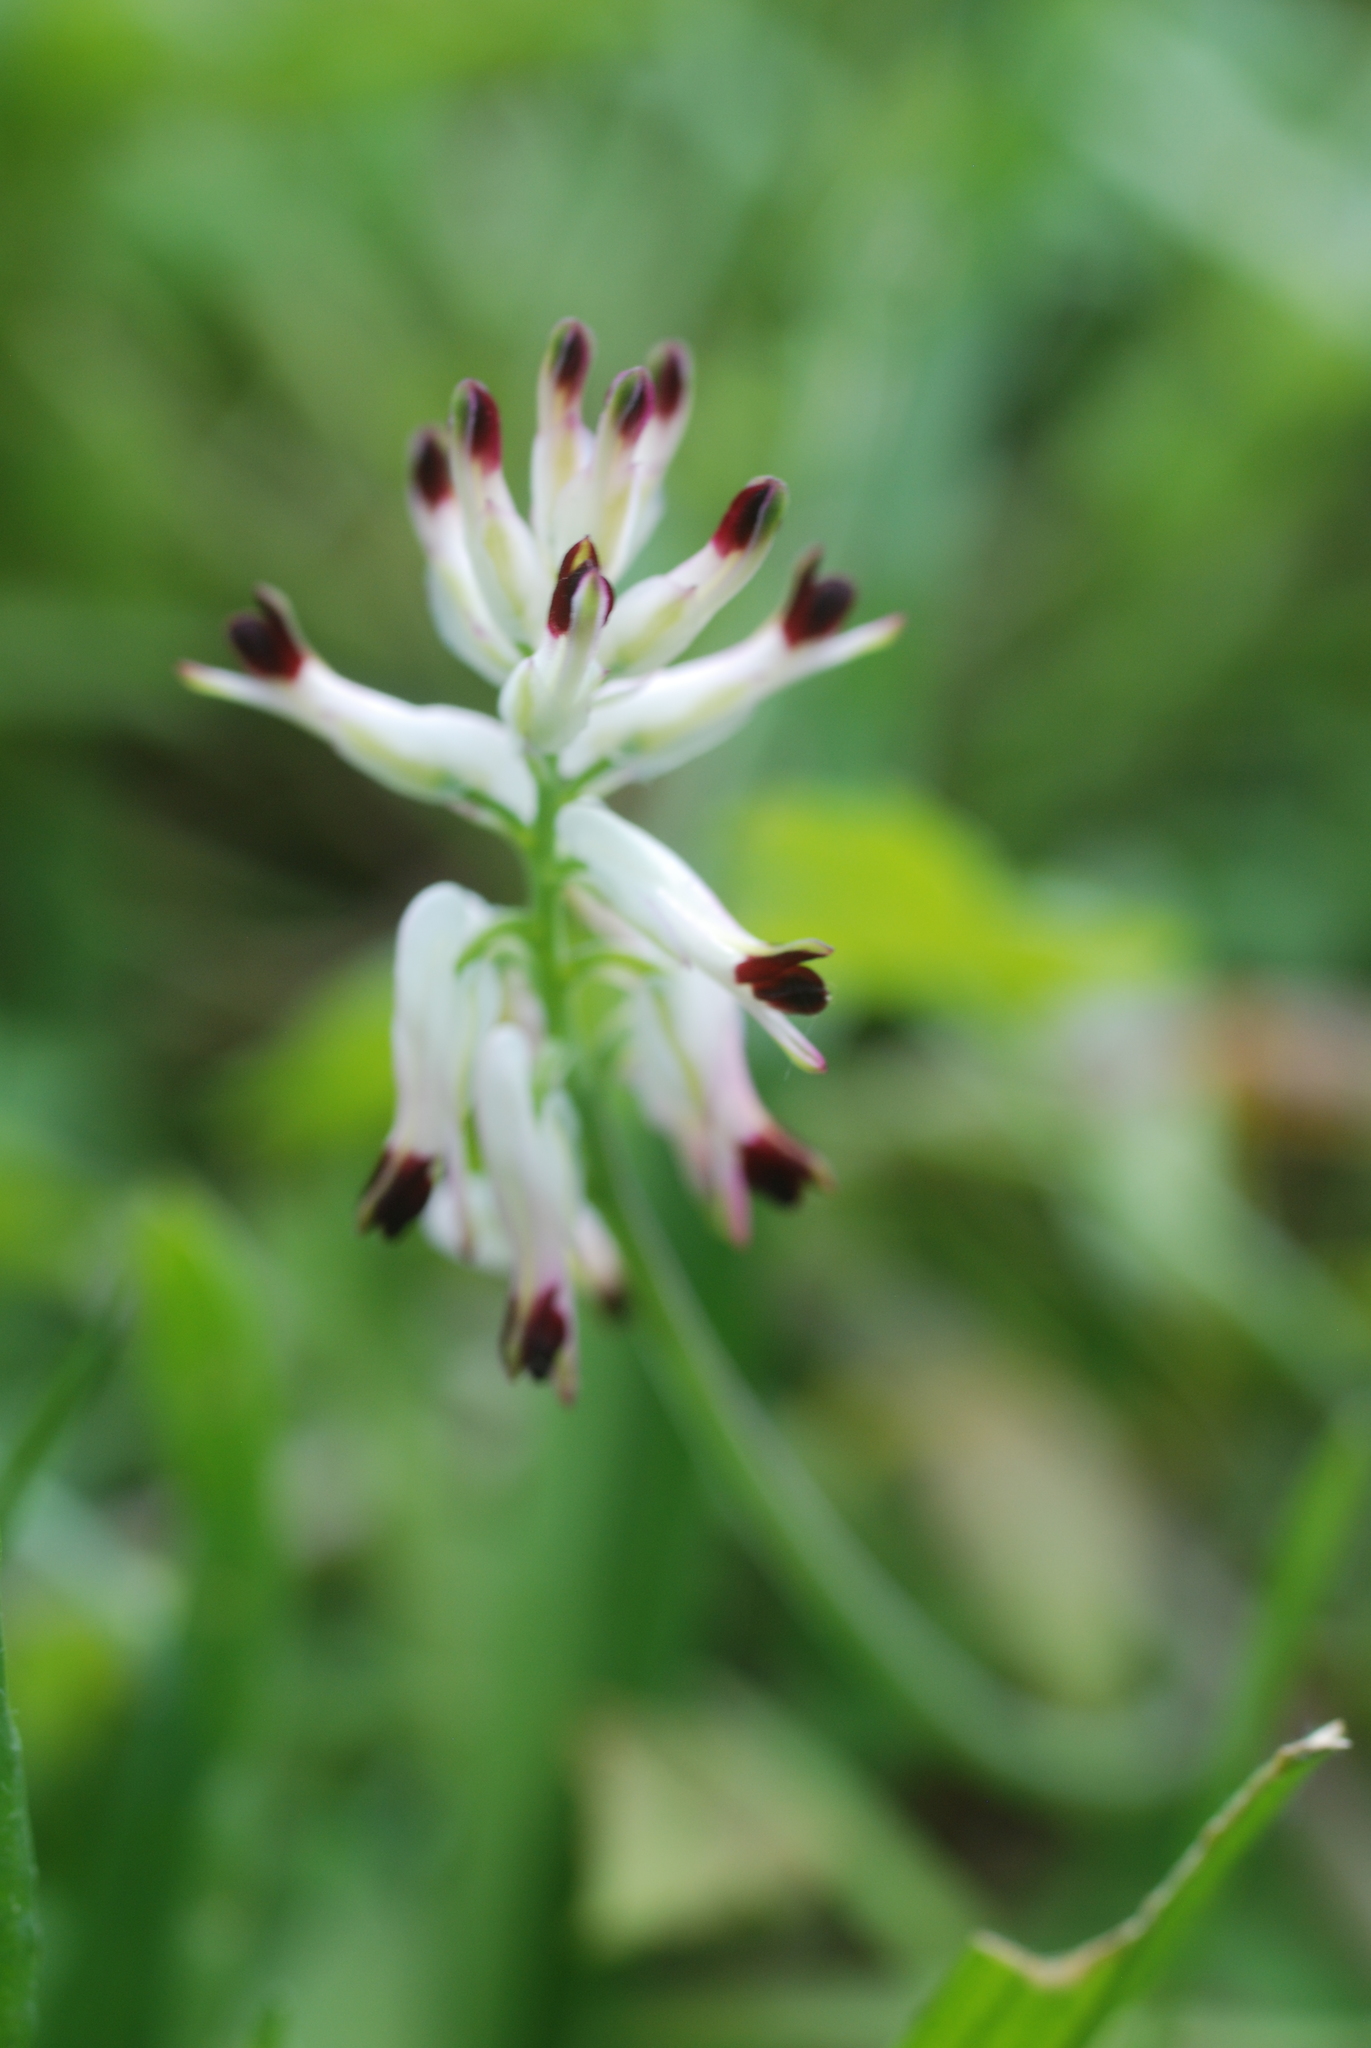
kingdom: Plantae
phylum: Tracheophyta
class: Magnoliopsida
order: Ranunculales
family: Papaveraceae
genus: Fumaria
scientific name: Fumaria capreolata
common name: White ramping-fumitory
